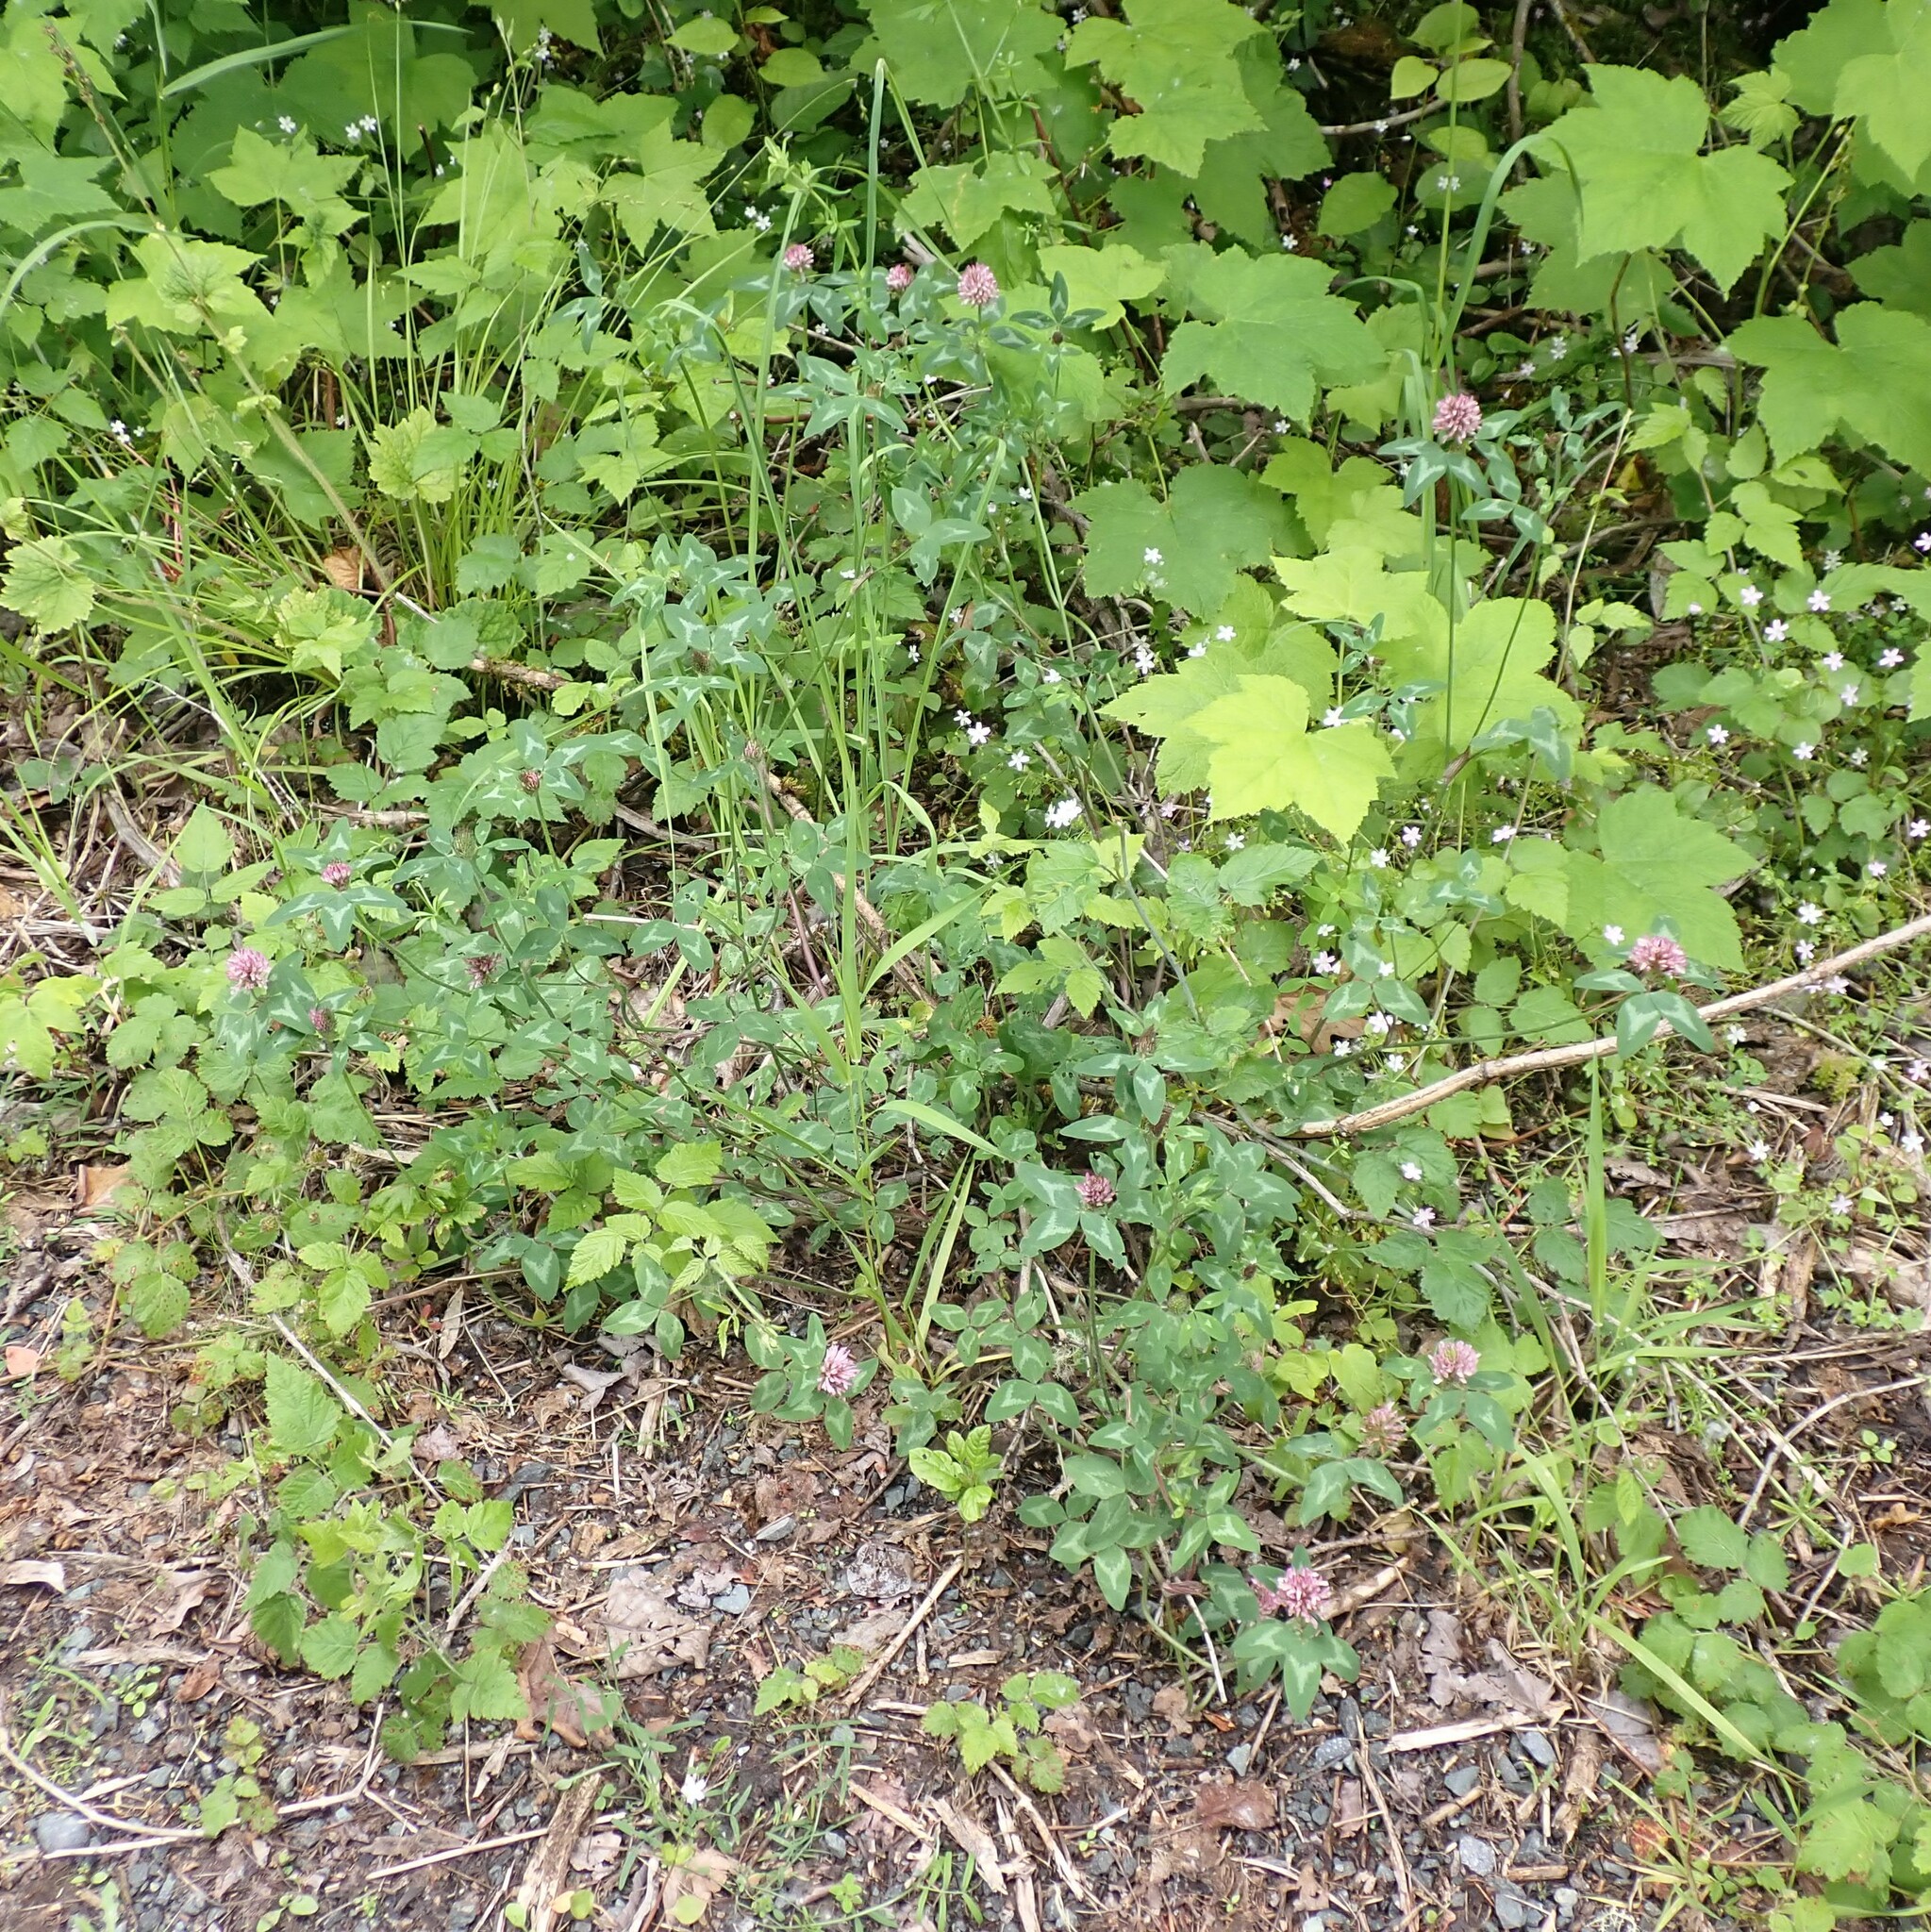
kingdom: Plantae
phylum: Tracheophyta
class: Magnoliopsida
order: Fabales
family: Fabaceae
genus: Trifolium
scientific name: Trifolium pratense
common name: Red clover
